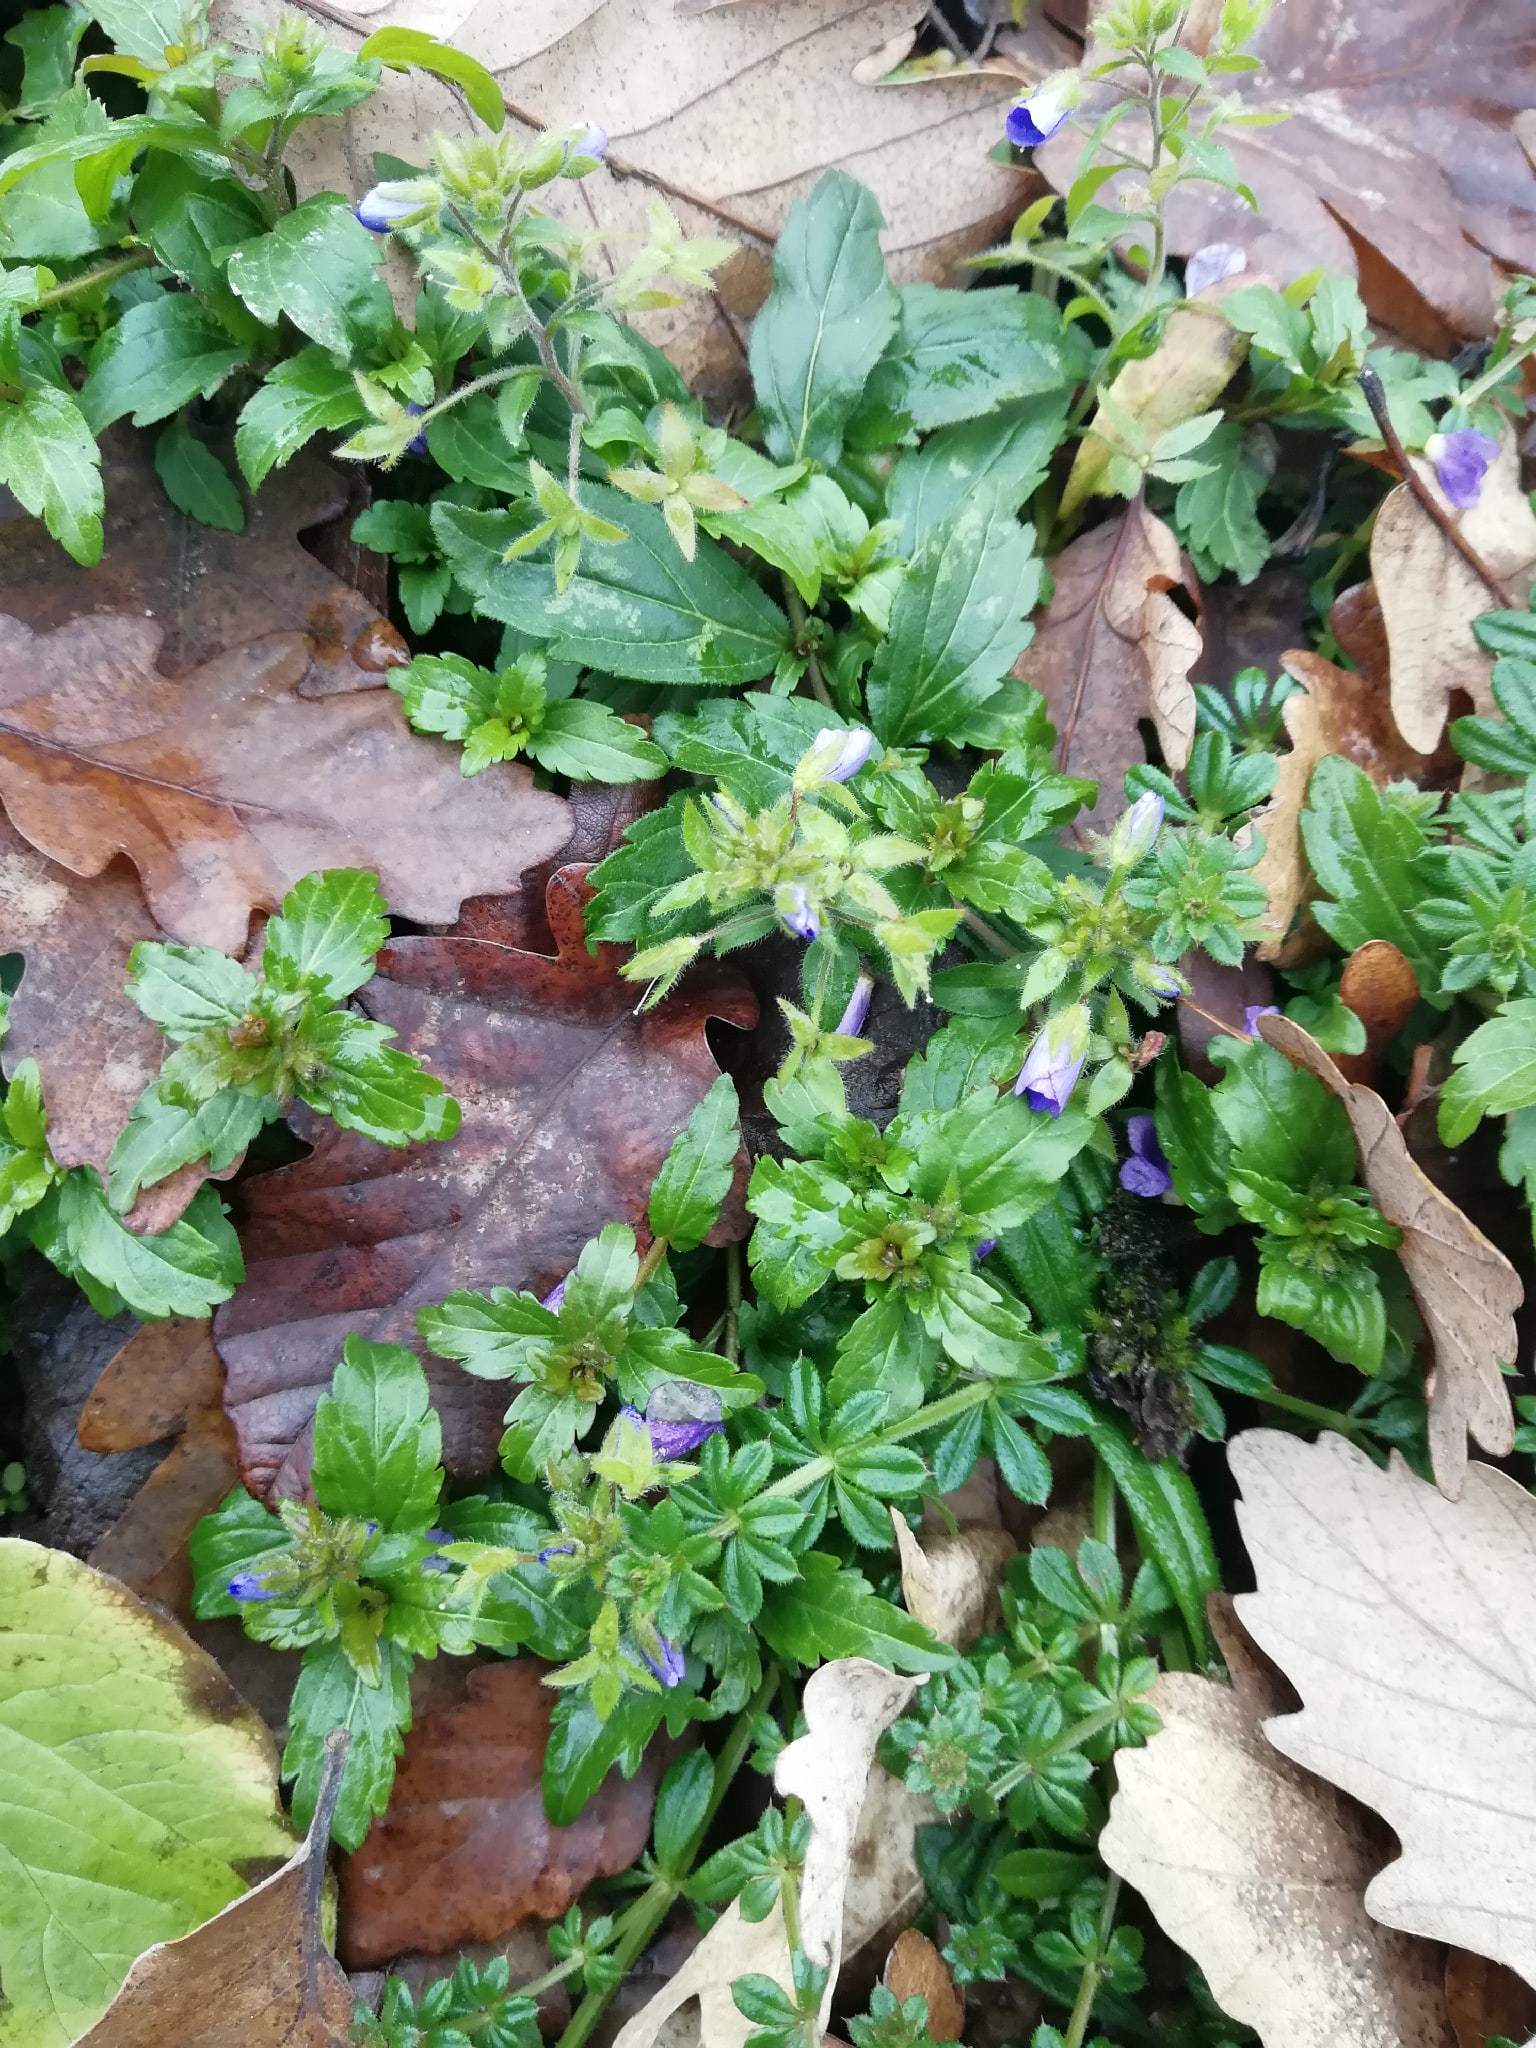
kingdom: Plantae
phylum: Tracheophyta
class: Magnoliopsida
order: Lamiales
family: Plantaginaceae
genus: Veronica
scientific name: Veronica
